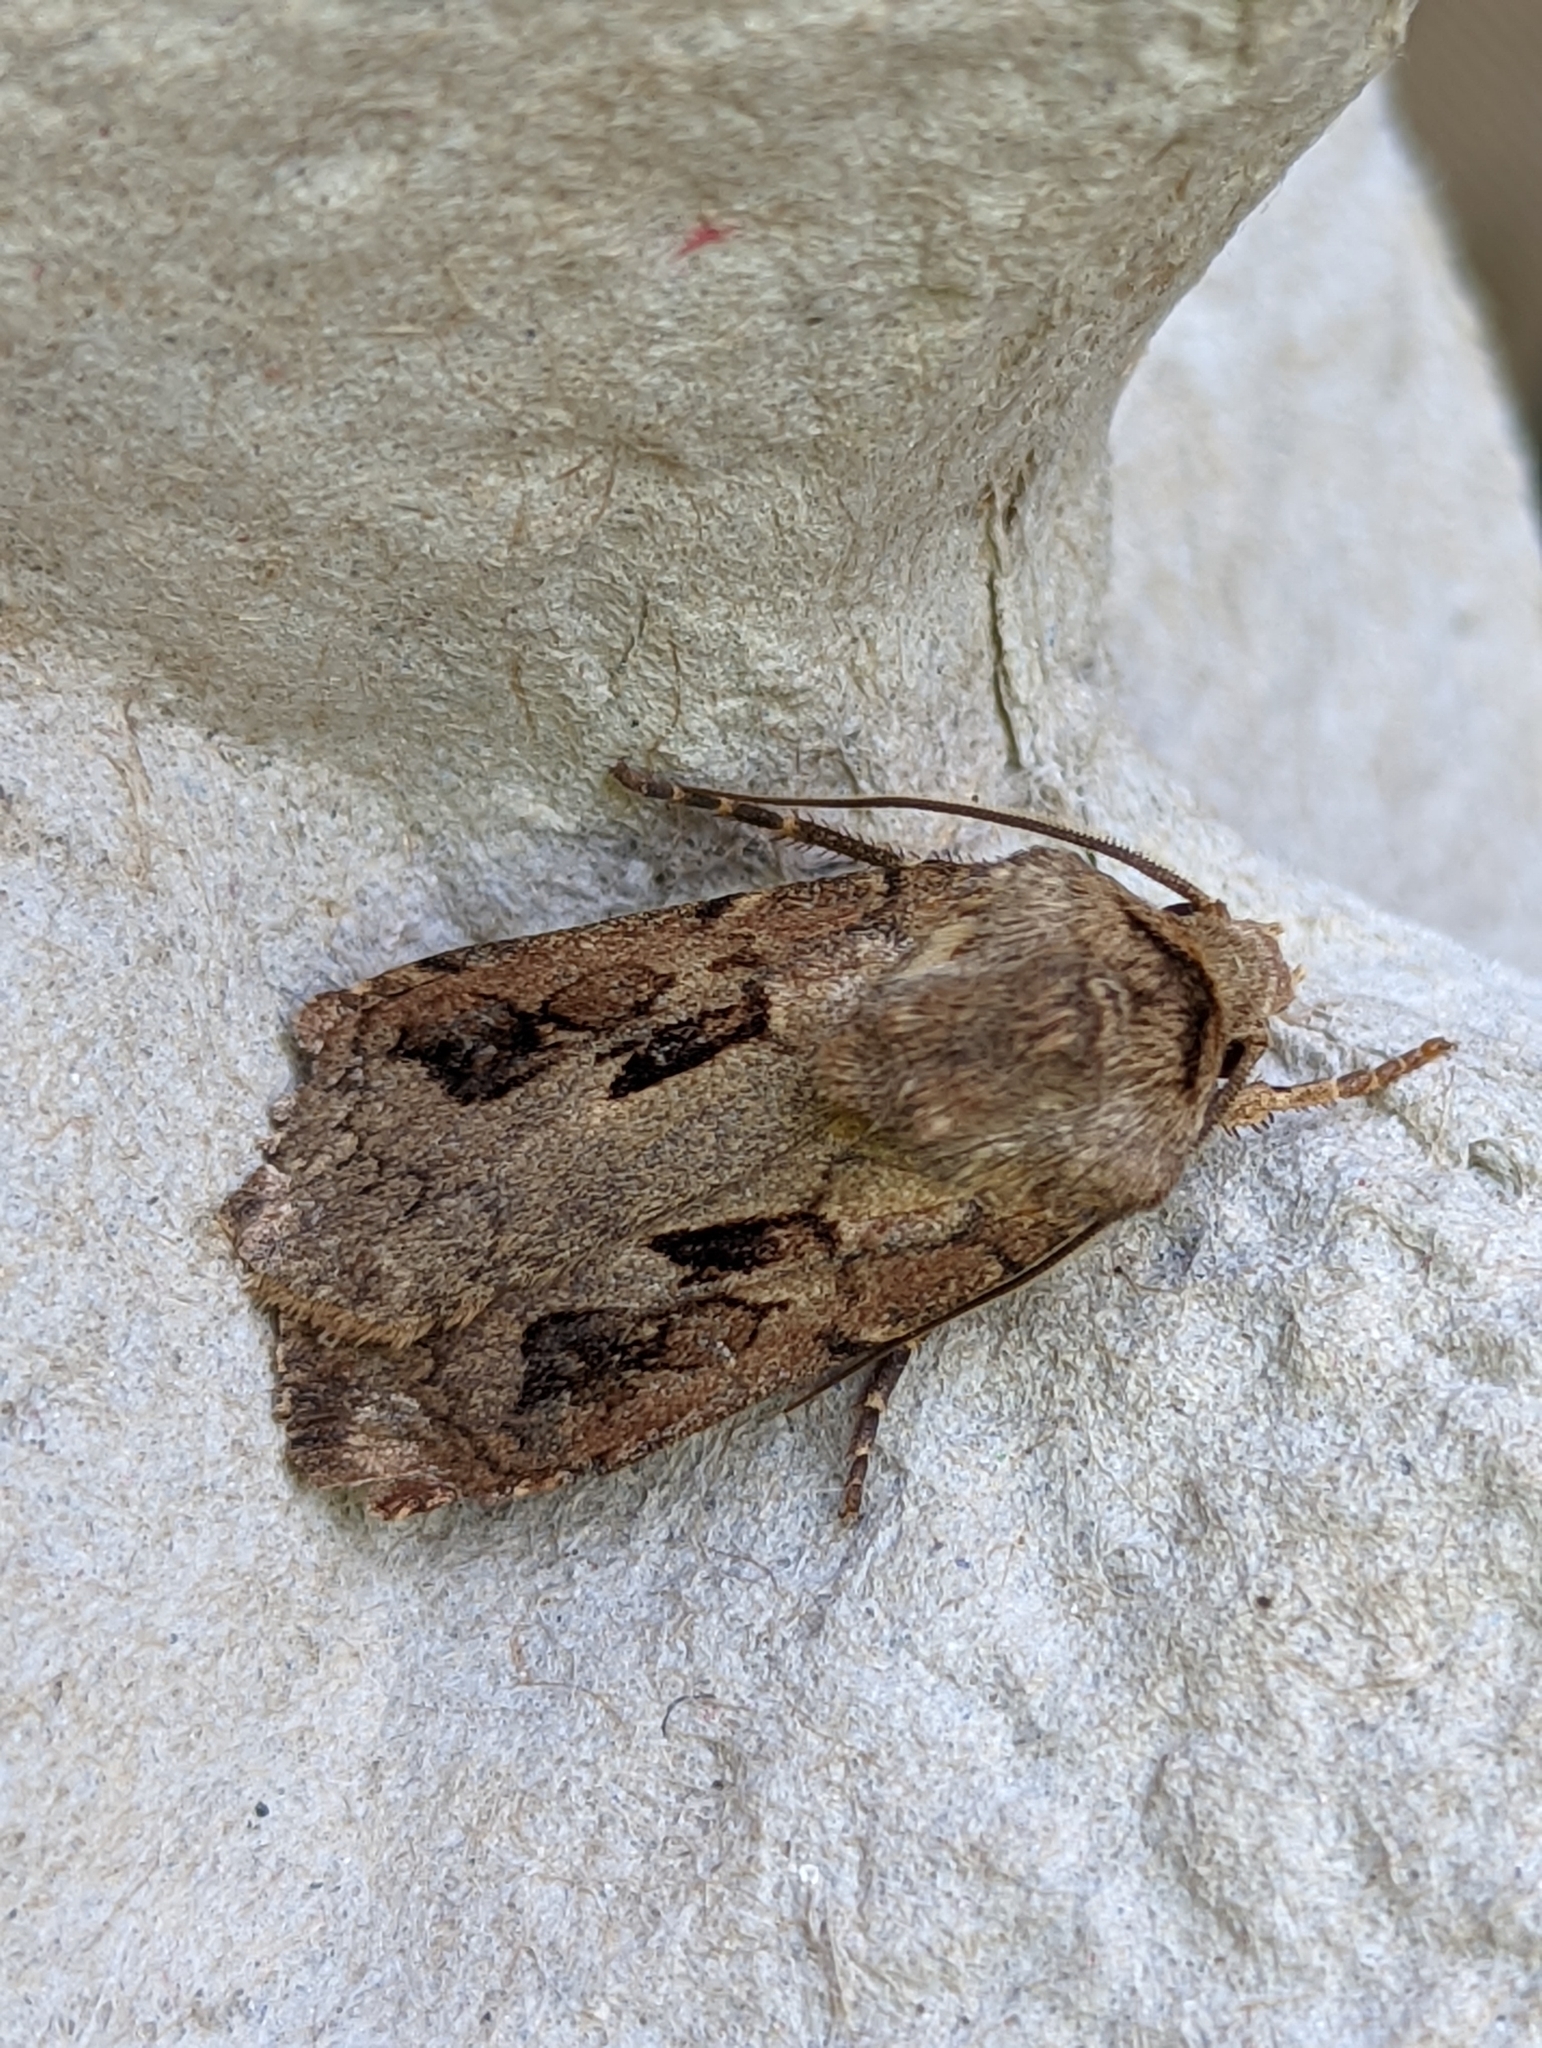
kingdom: Animalia
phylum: Arthropoda
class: Insecta
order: Lepidoptera
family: Noctuidae
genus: Agrotis
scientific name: Agrotis exclamationis
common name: Heart and dart
